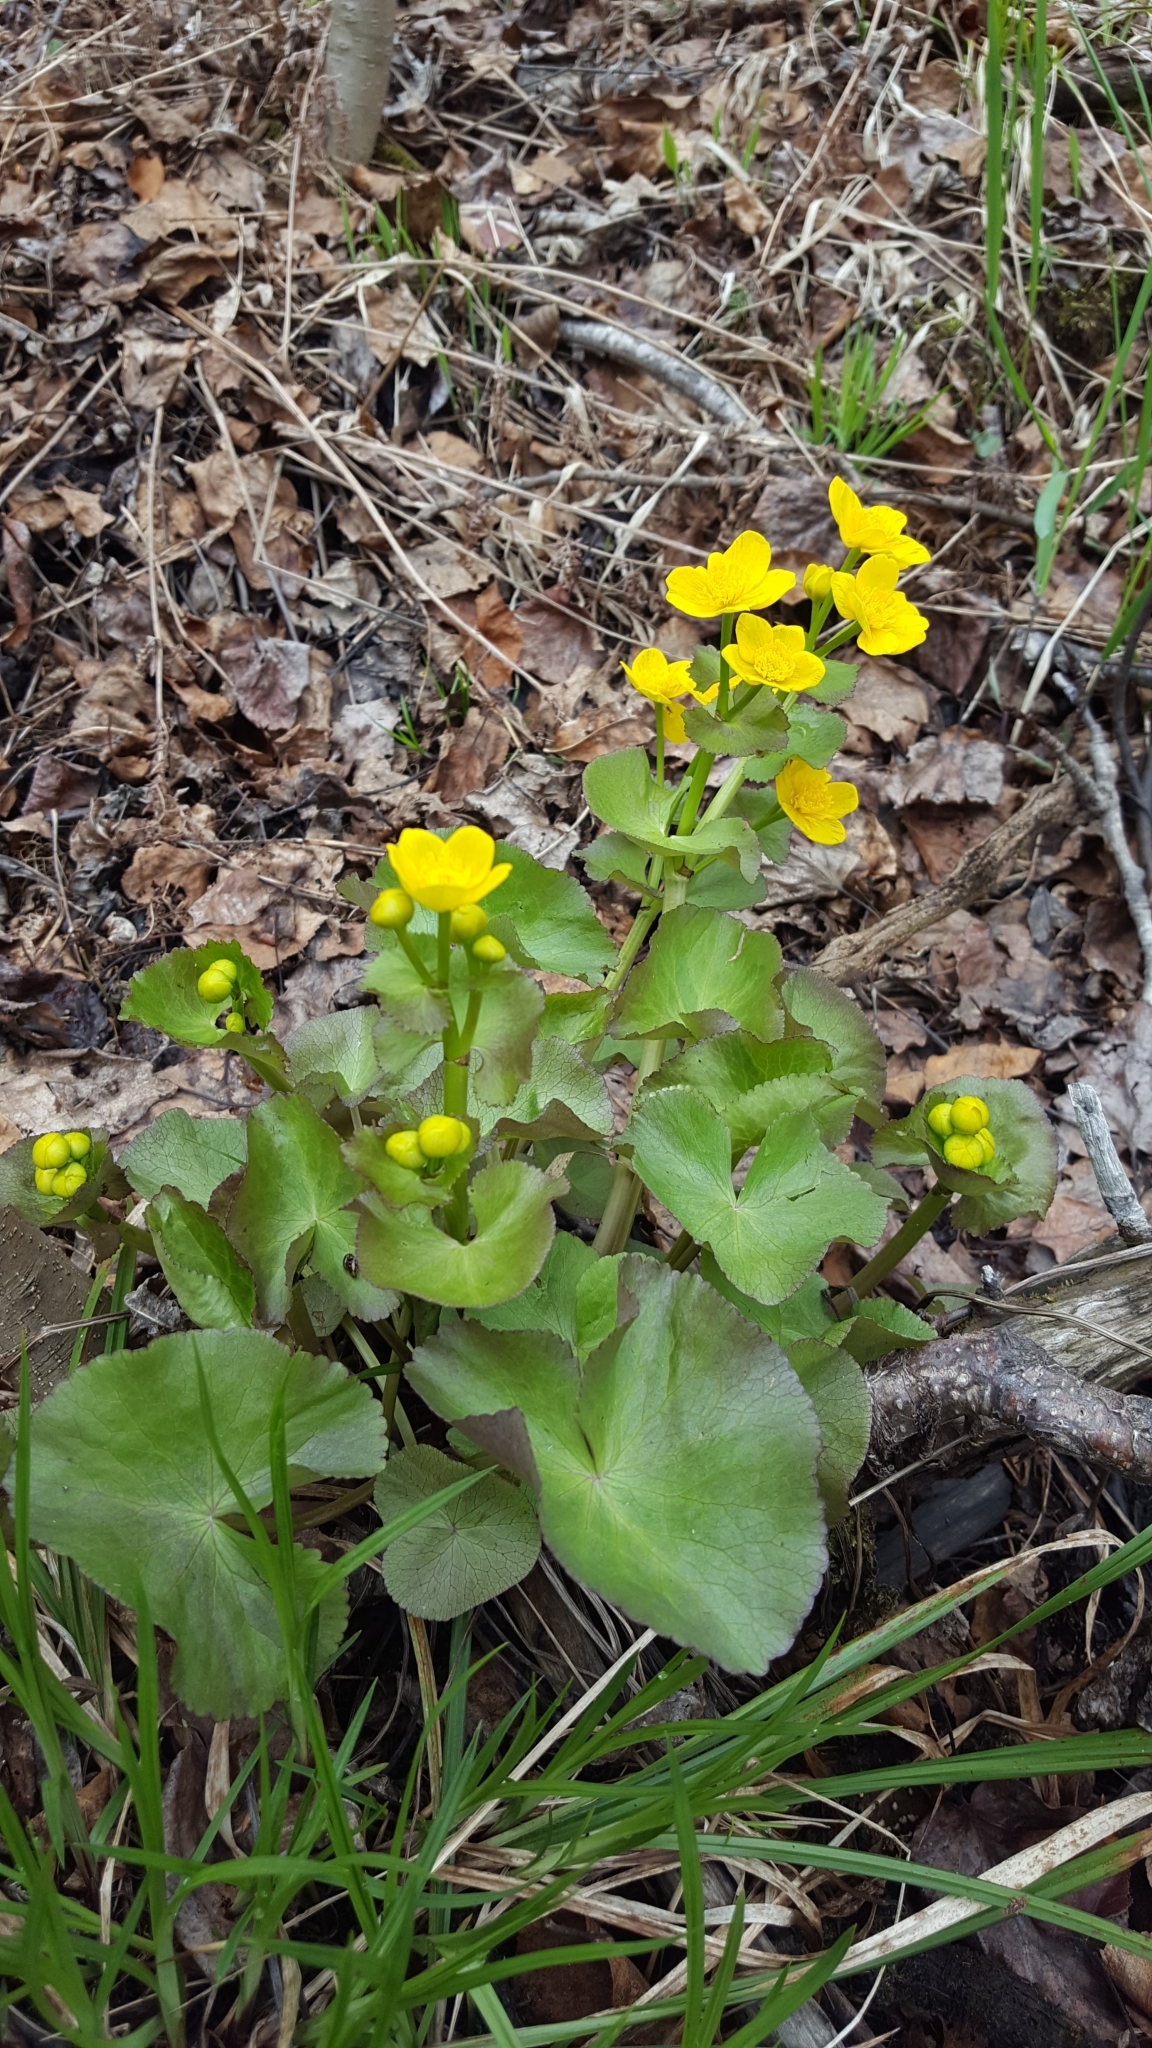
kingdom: Plantae
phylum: Tracheophyta
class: Magnoliopsida
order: Ranunculales
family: Ranunculaceae
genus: Caltha
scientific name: Caltha palustris
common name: Marsh marigold
